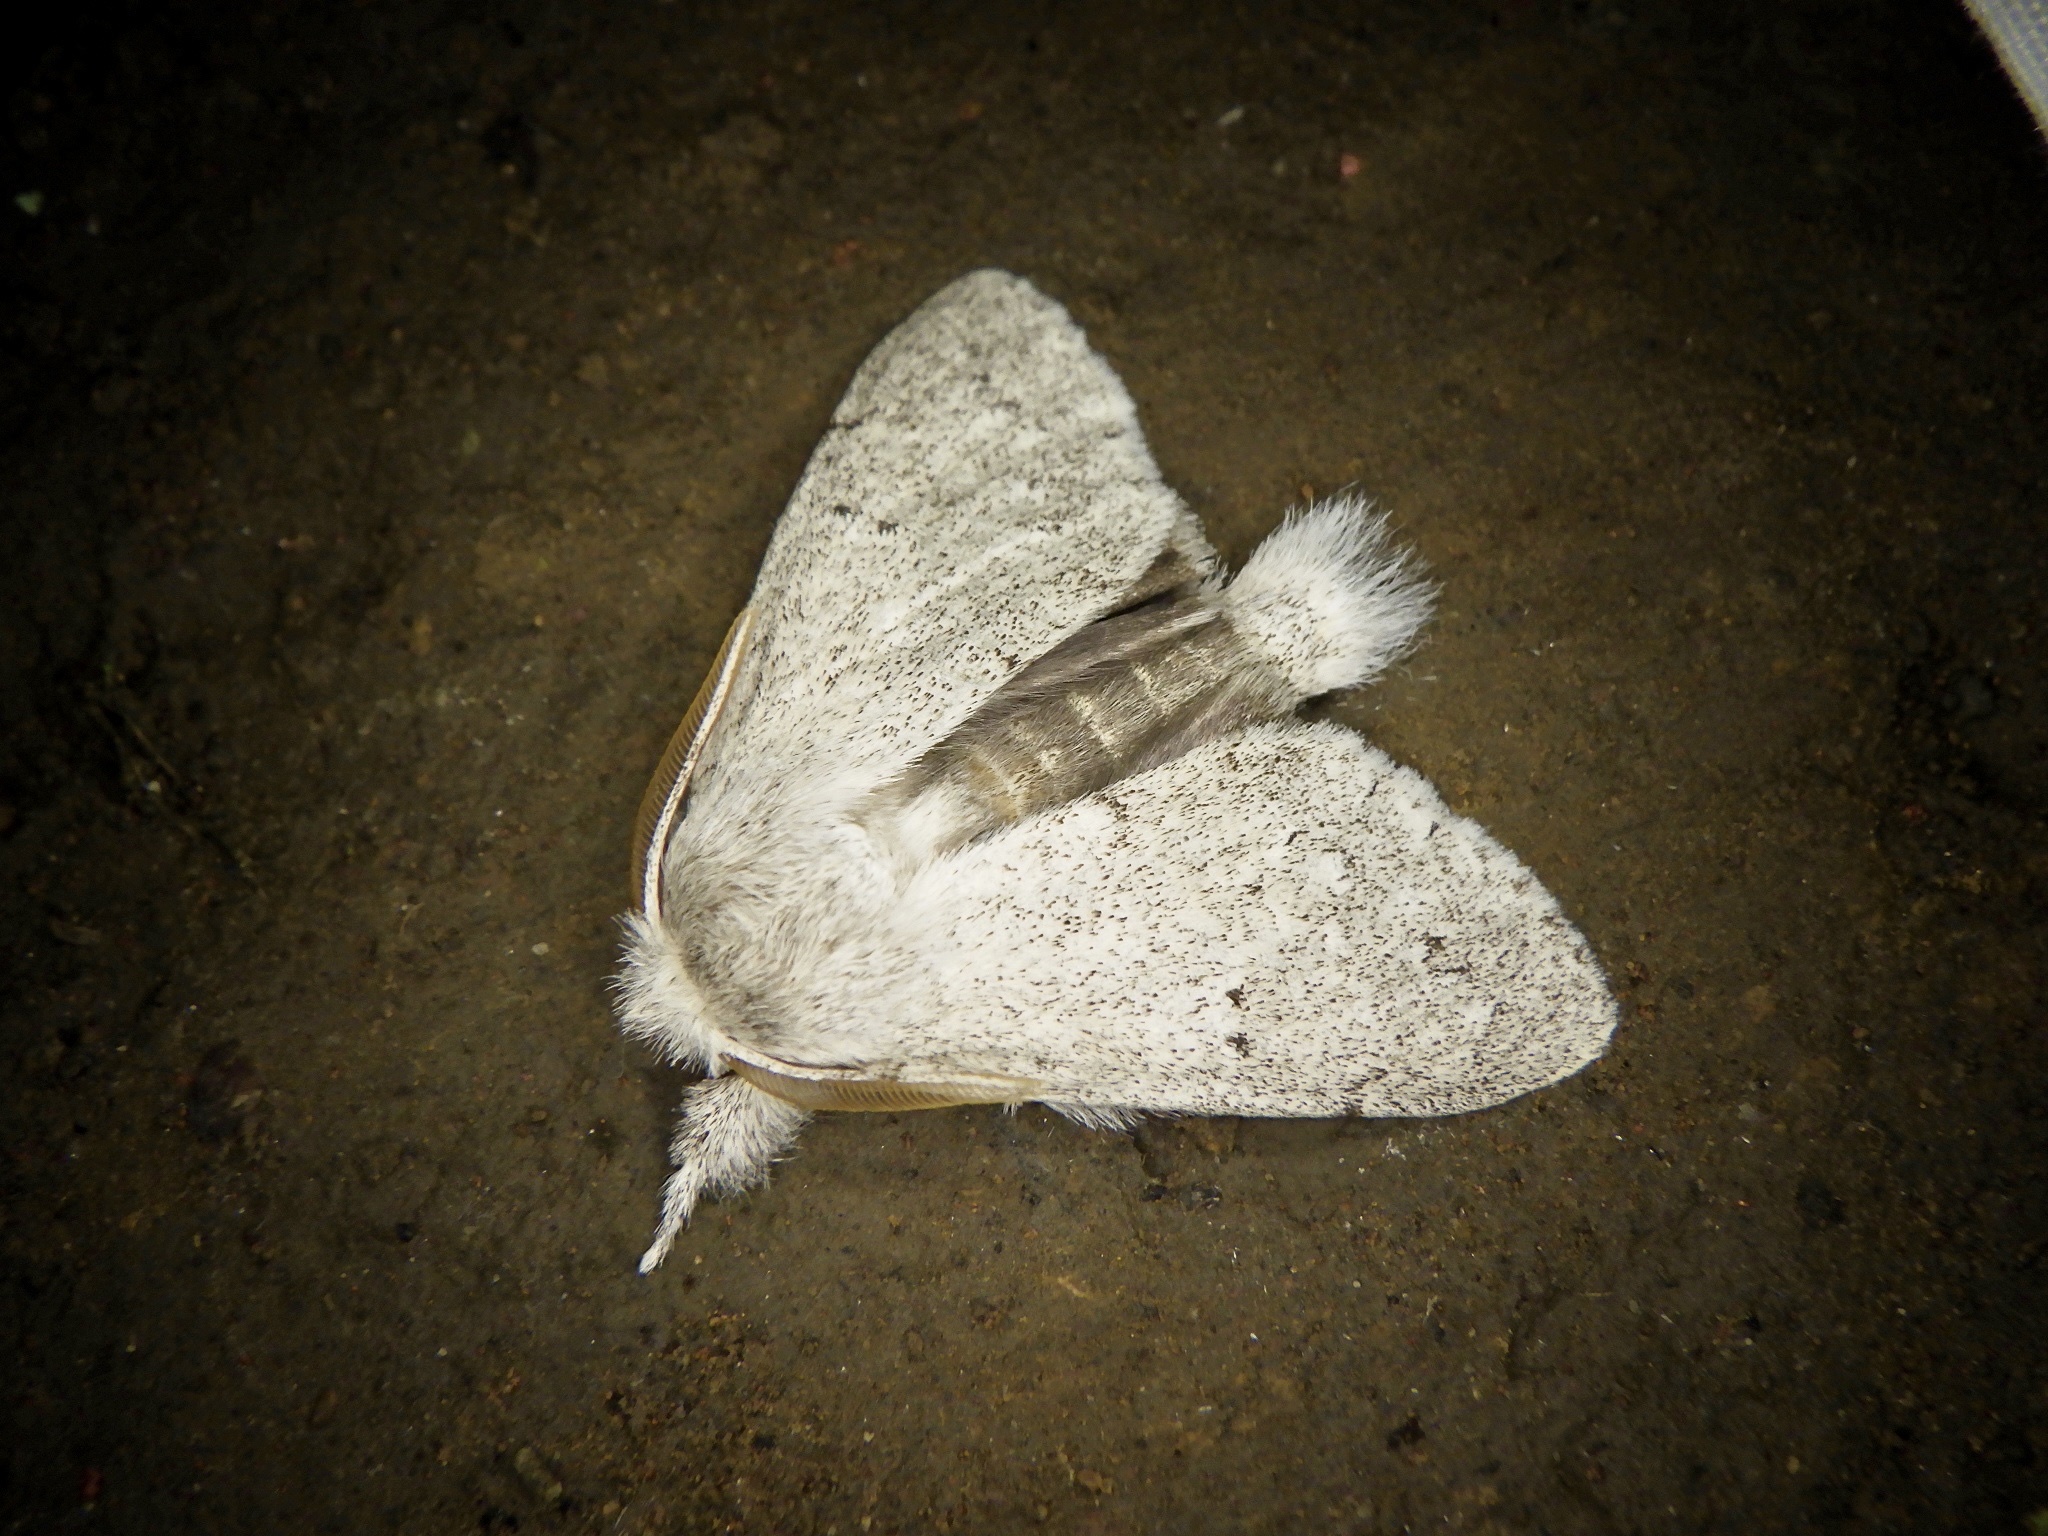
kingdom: Animalia
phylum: Arthropoda
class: Insecta
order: Lepidoptera
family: Notodontidae
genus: Cnethodonta
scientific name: Cnethodonta grisescens
